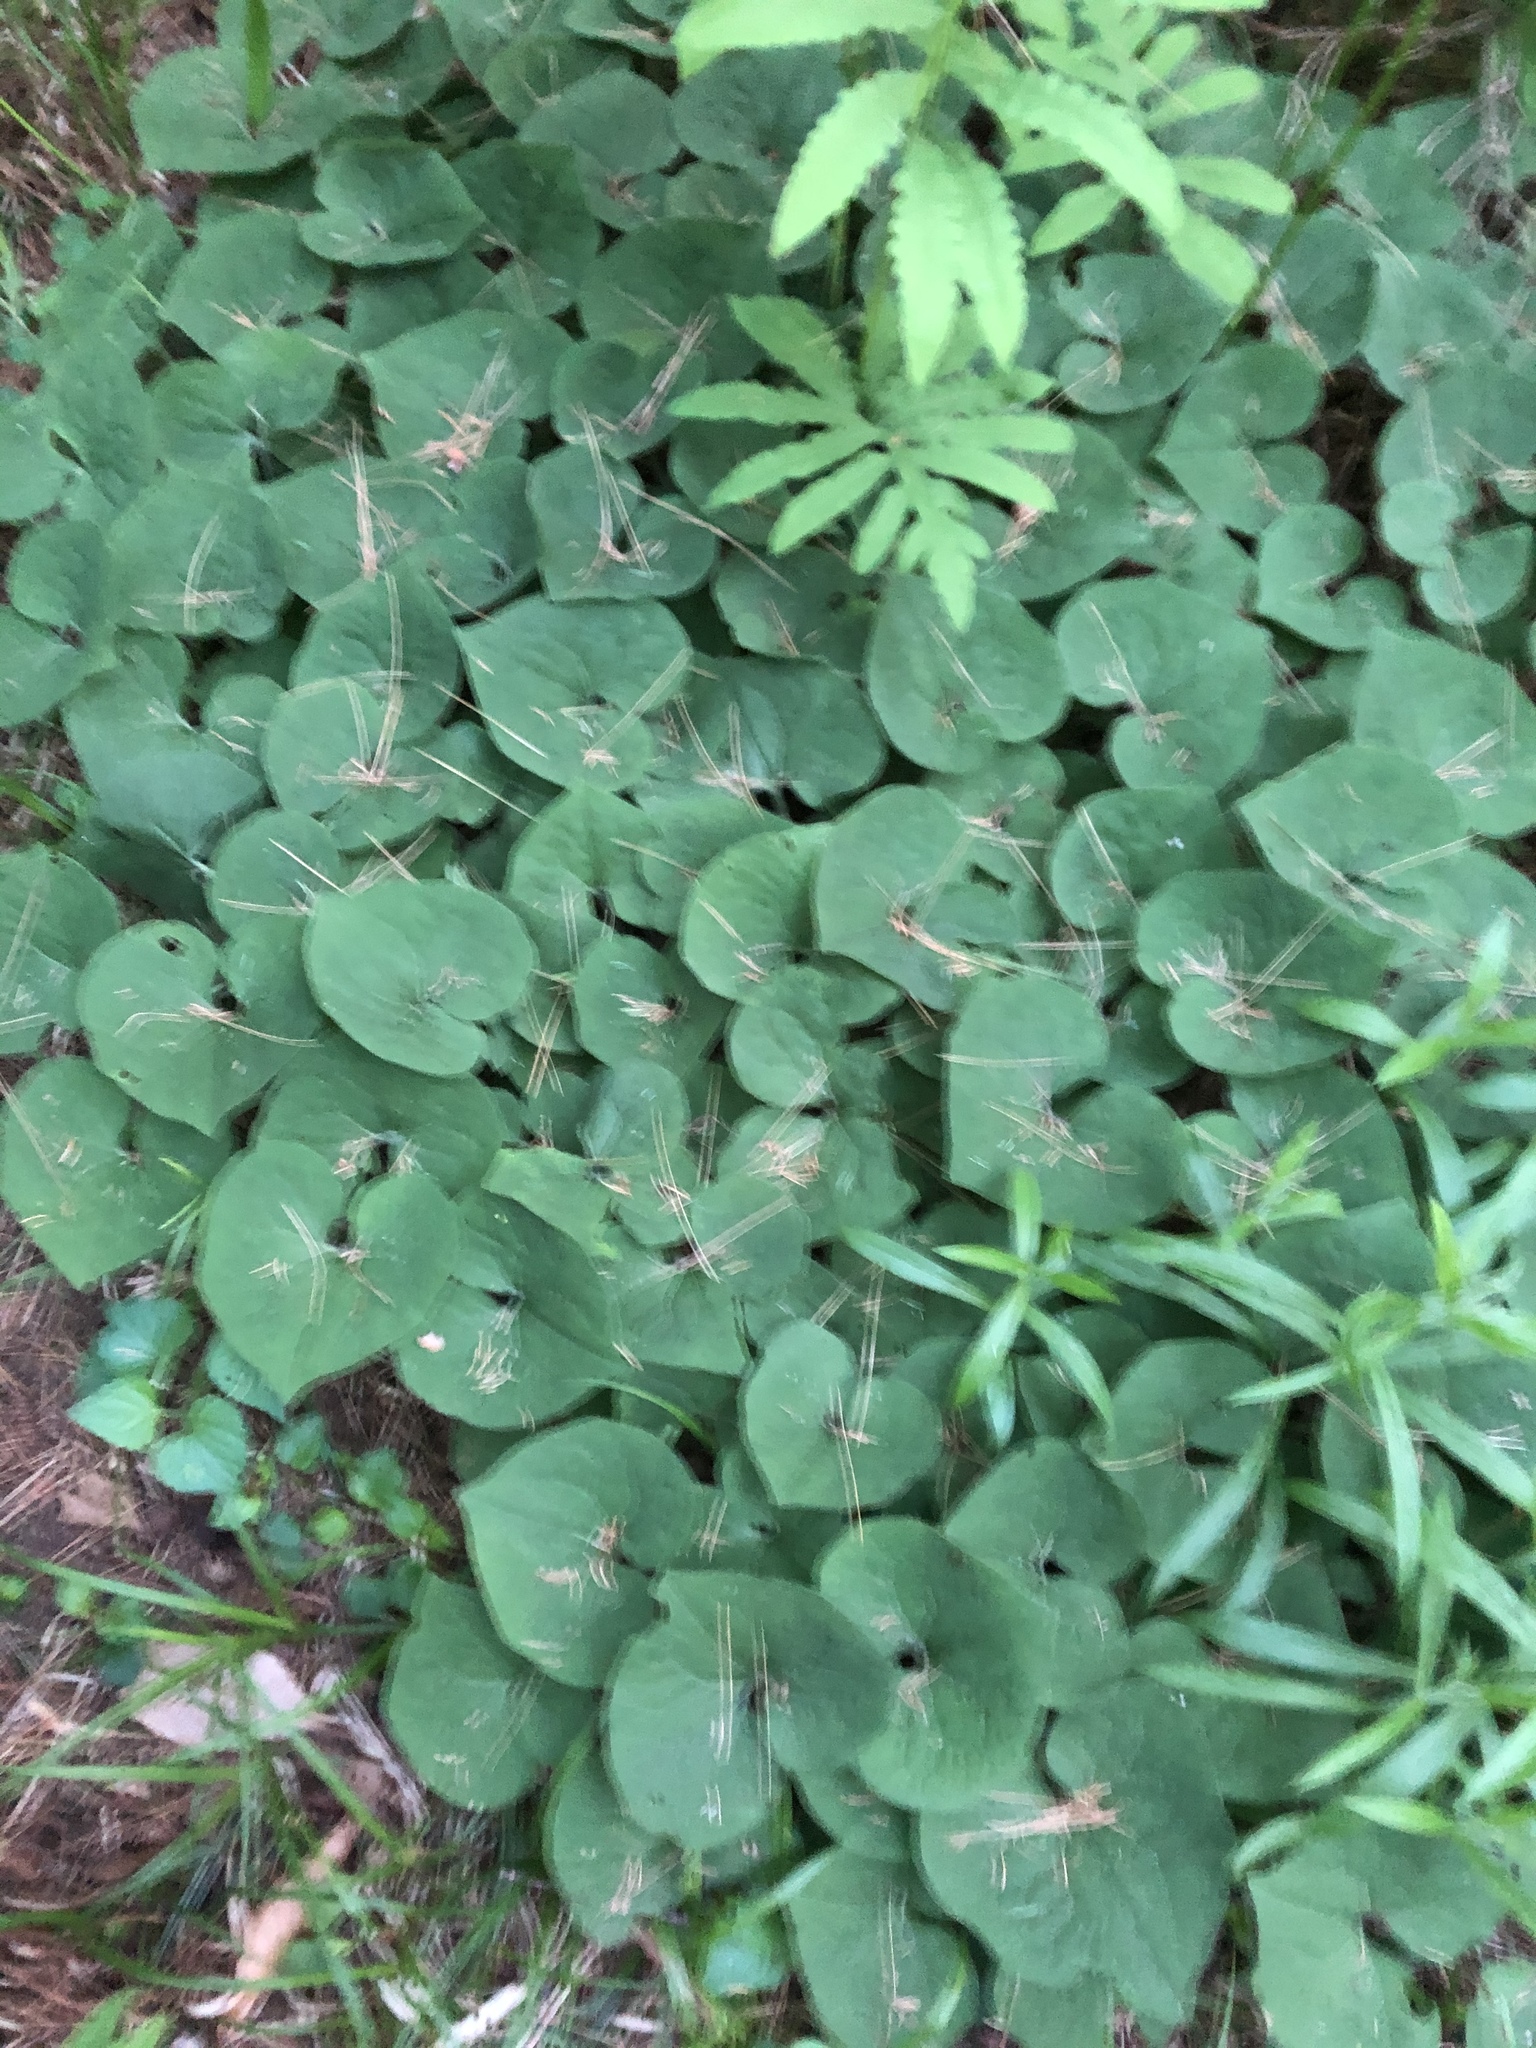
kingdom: Plantae
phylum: Tracheophyta
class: Magnoliopsida
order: Piperales
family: Aristolochiaceae
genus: Asarum
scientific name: Asarum canadense
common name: Wild ginger
